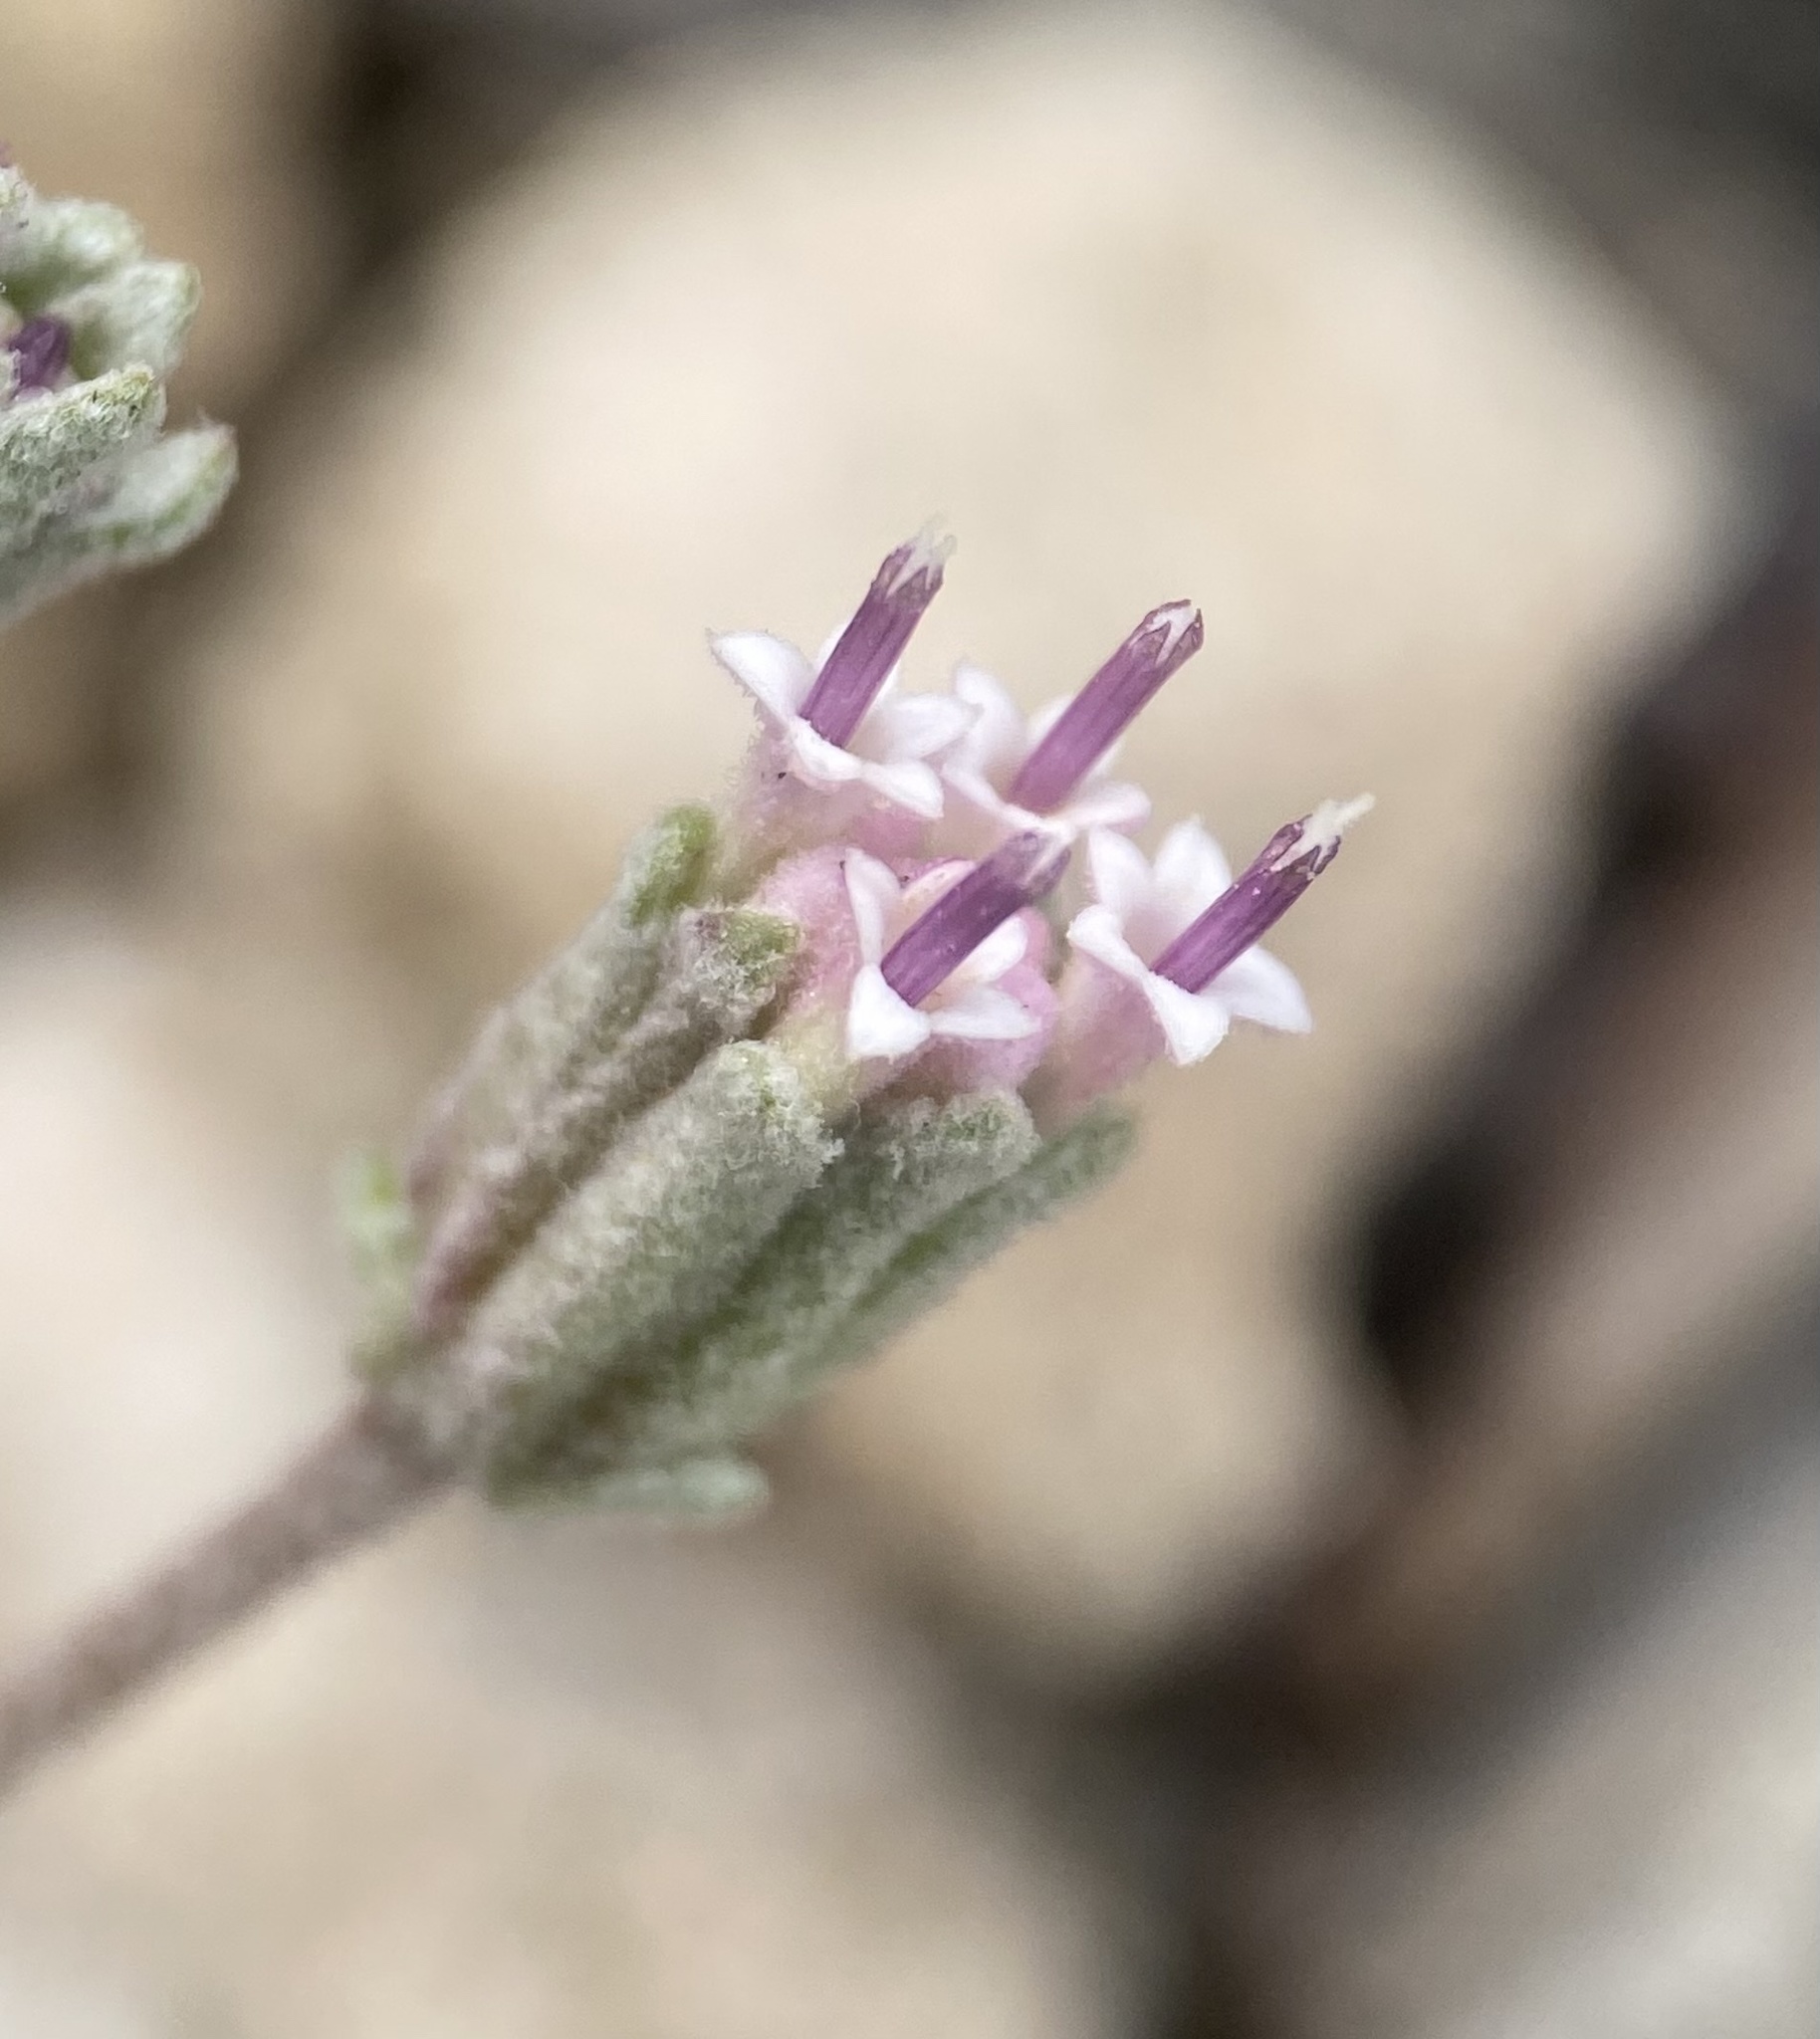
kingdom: Plantae
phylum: Tracheophyta
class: Magnoliopsida
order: Asterales
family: Asteraceae
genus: Chaenactis
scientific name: Chaenactis evermannii
